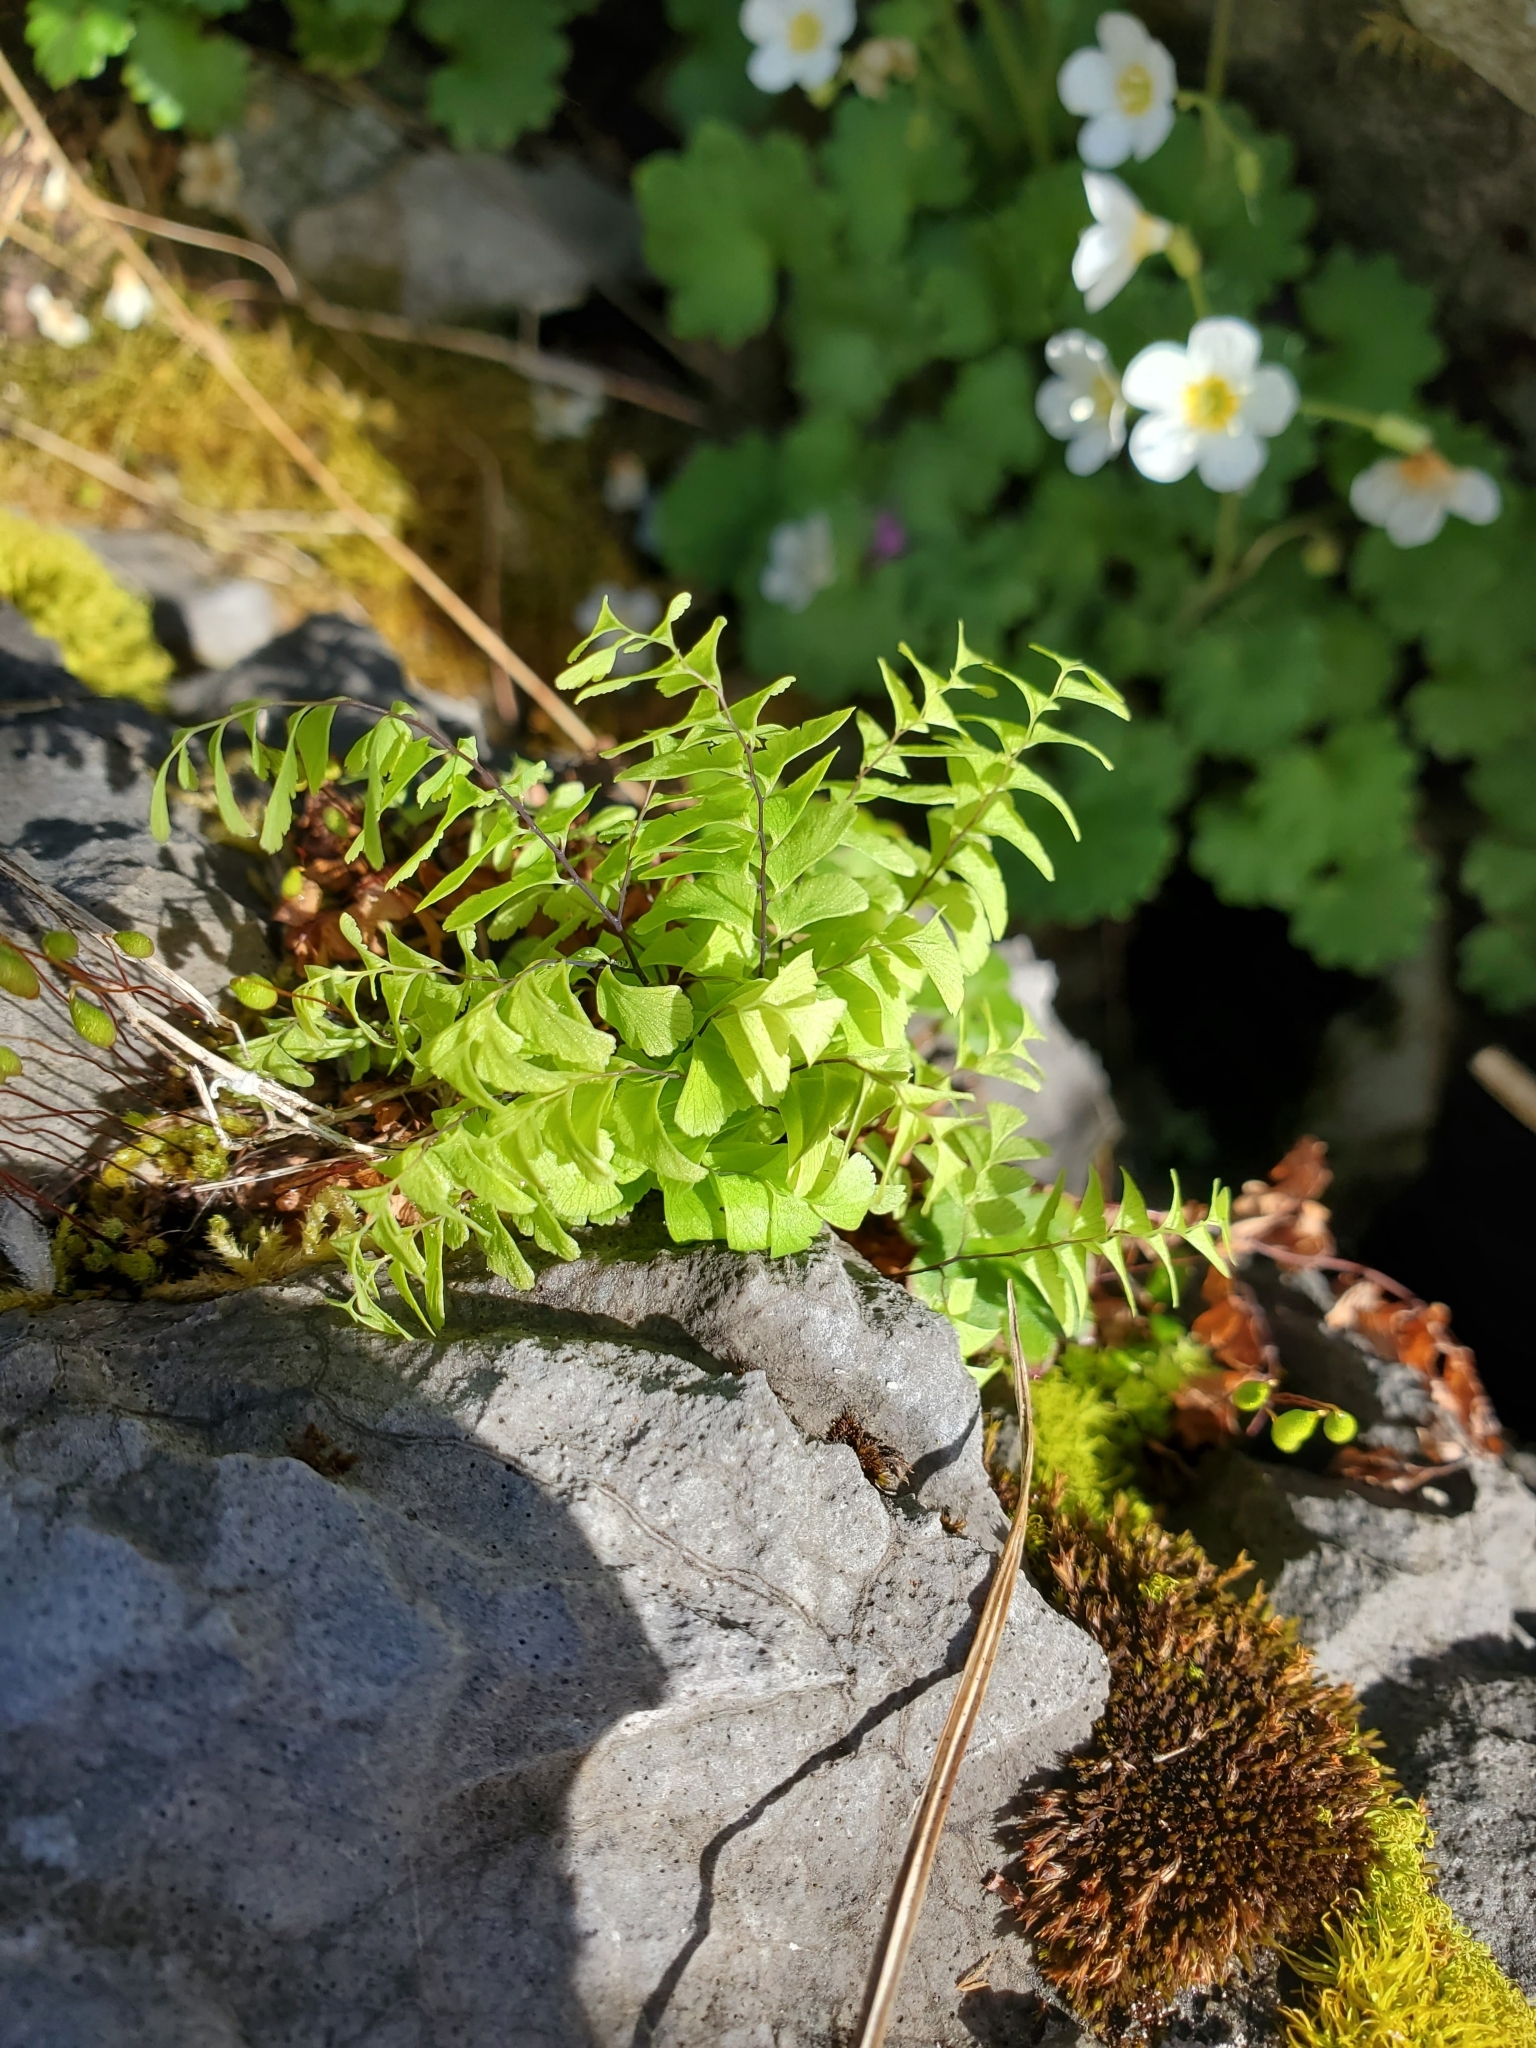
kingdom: Plantae
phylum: Tracheophyta
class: Polypodiopsida
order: Polypodiales
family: Pteridaceae
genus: Adiantum
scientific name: Adiantum aleuticum
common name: Aleutian maidenhair fern
